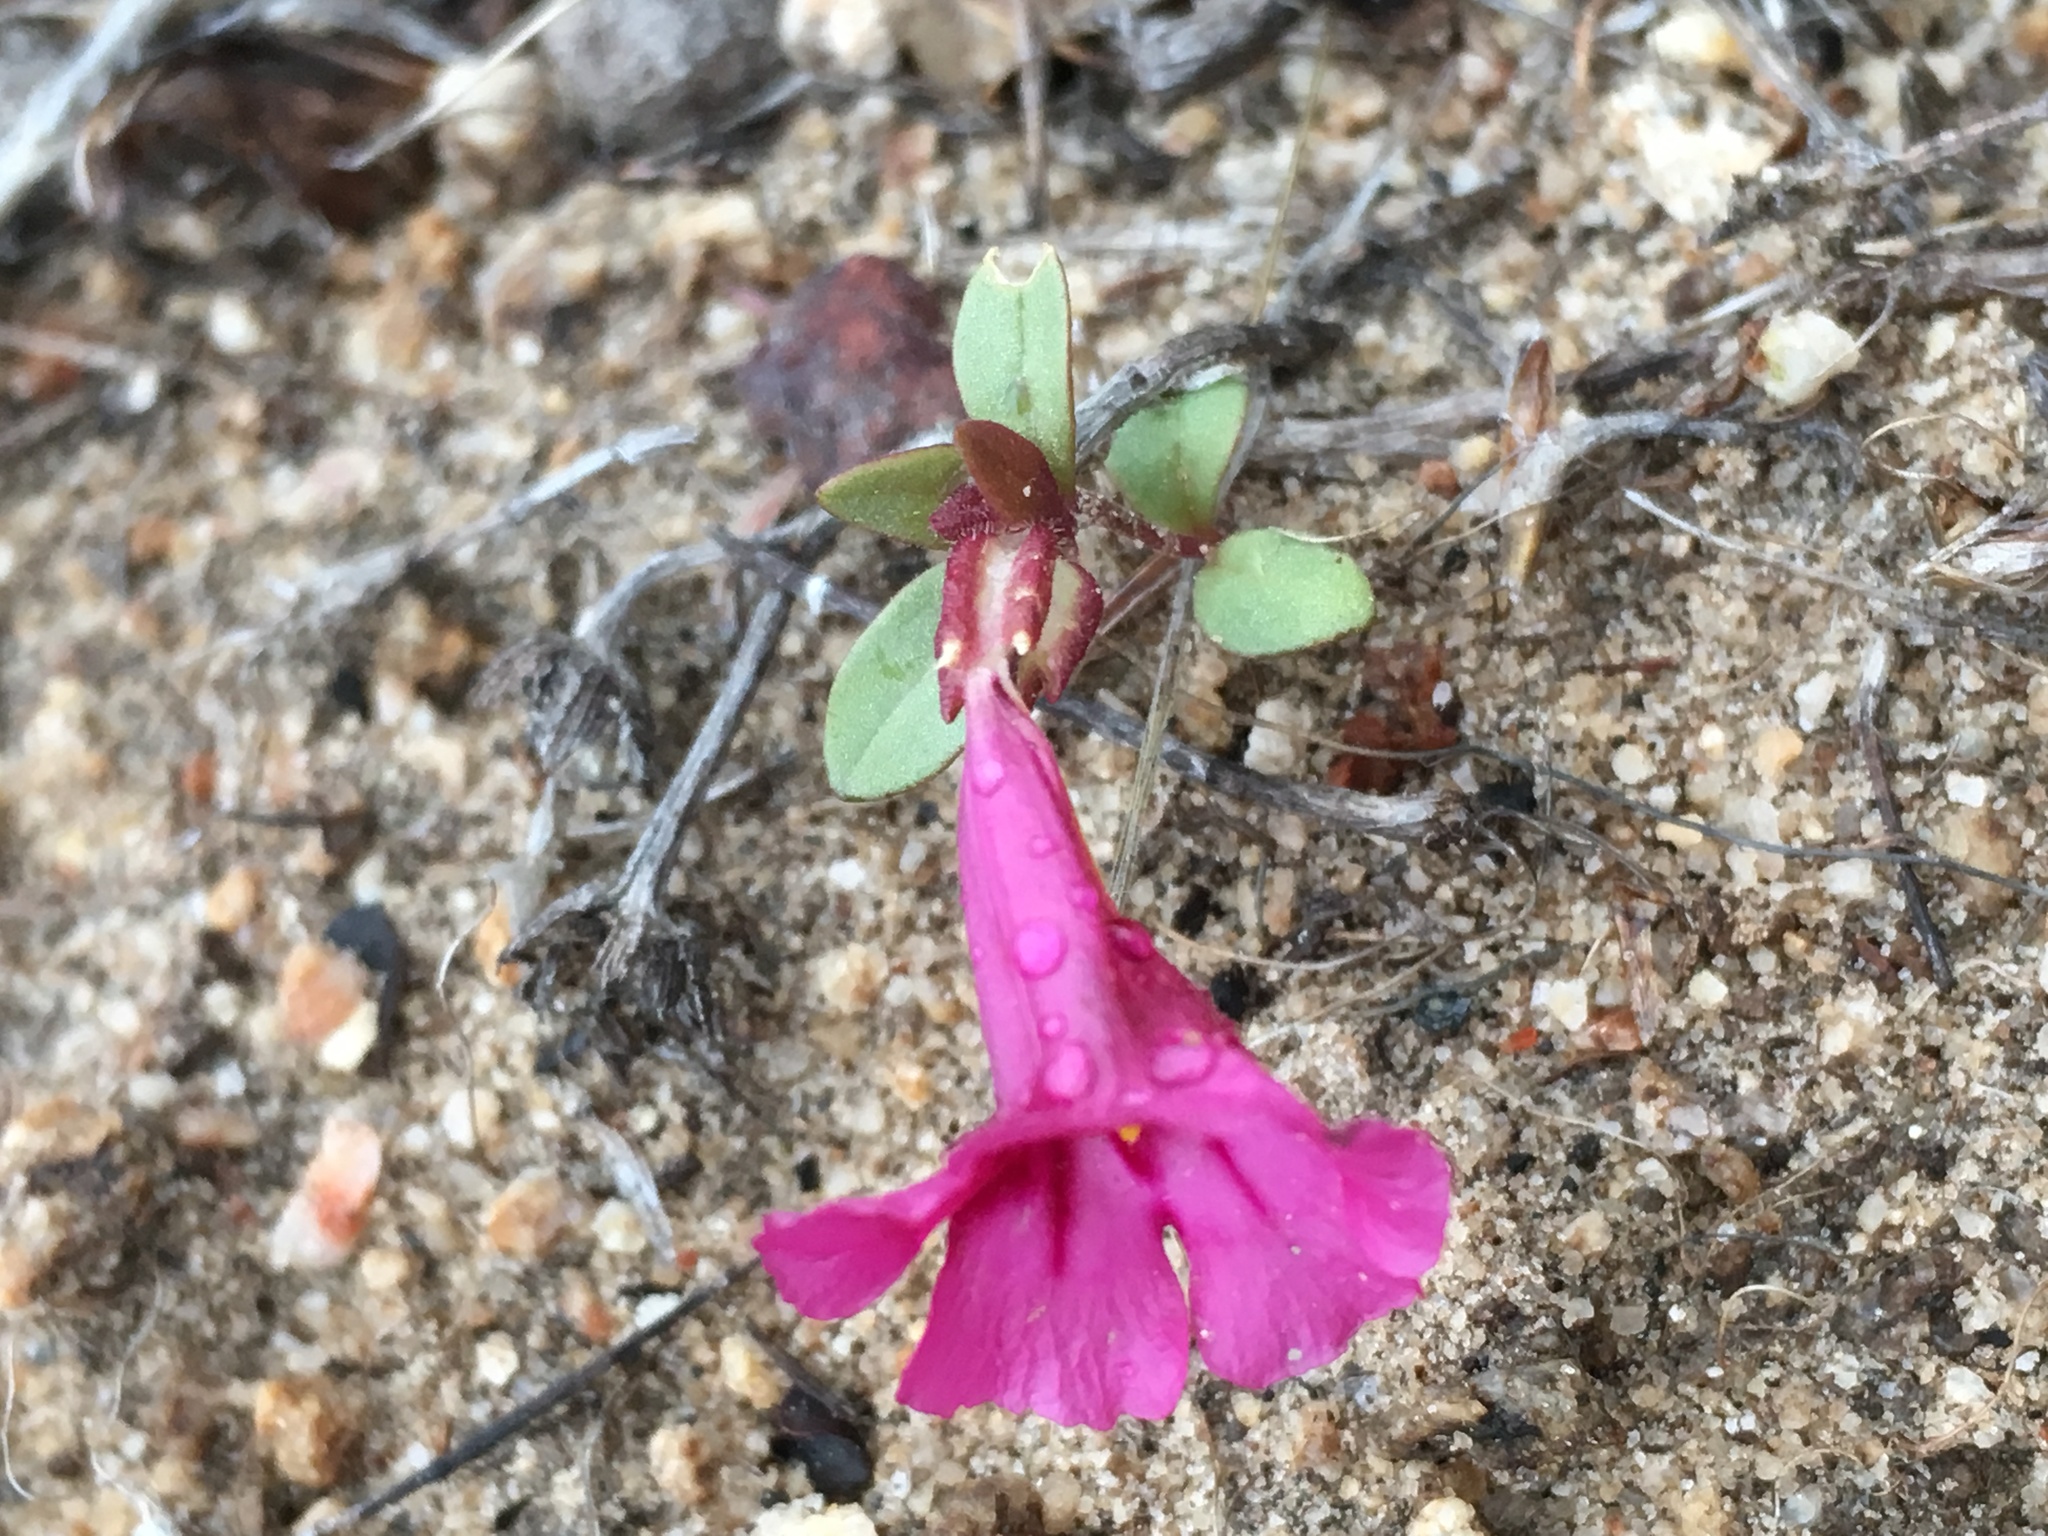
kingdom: Plantae
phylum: Tracheophyta
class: Magnoliopsida
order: Lamiales
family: Phrymaceae
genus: Diplacus
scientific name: Diplacus fremontii
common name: Fremont's monkey-flower
